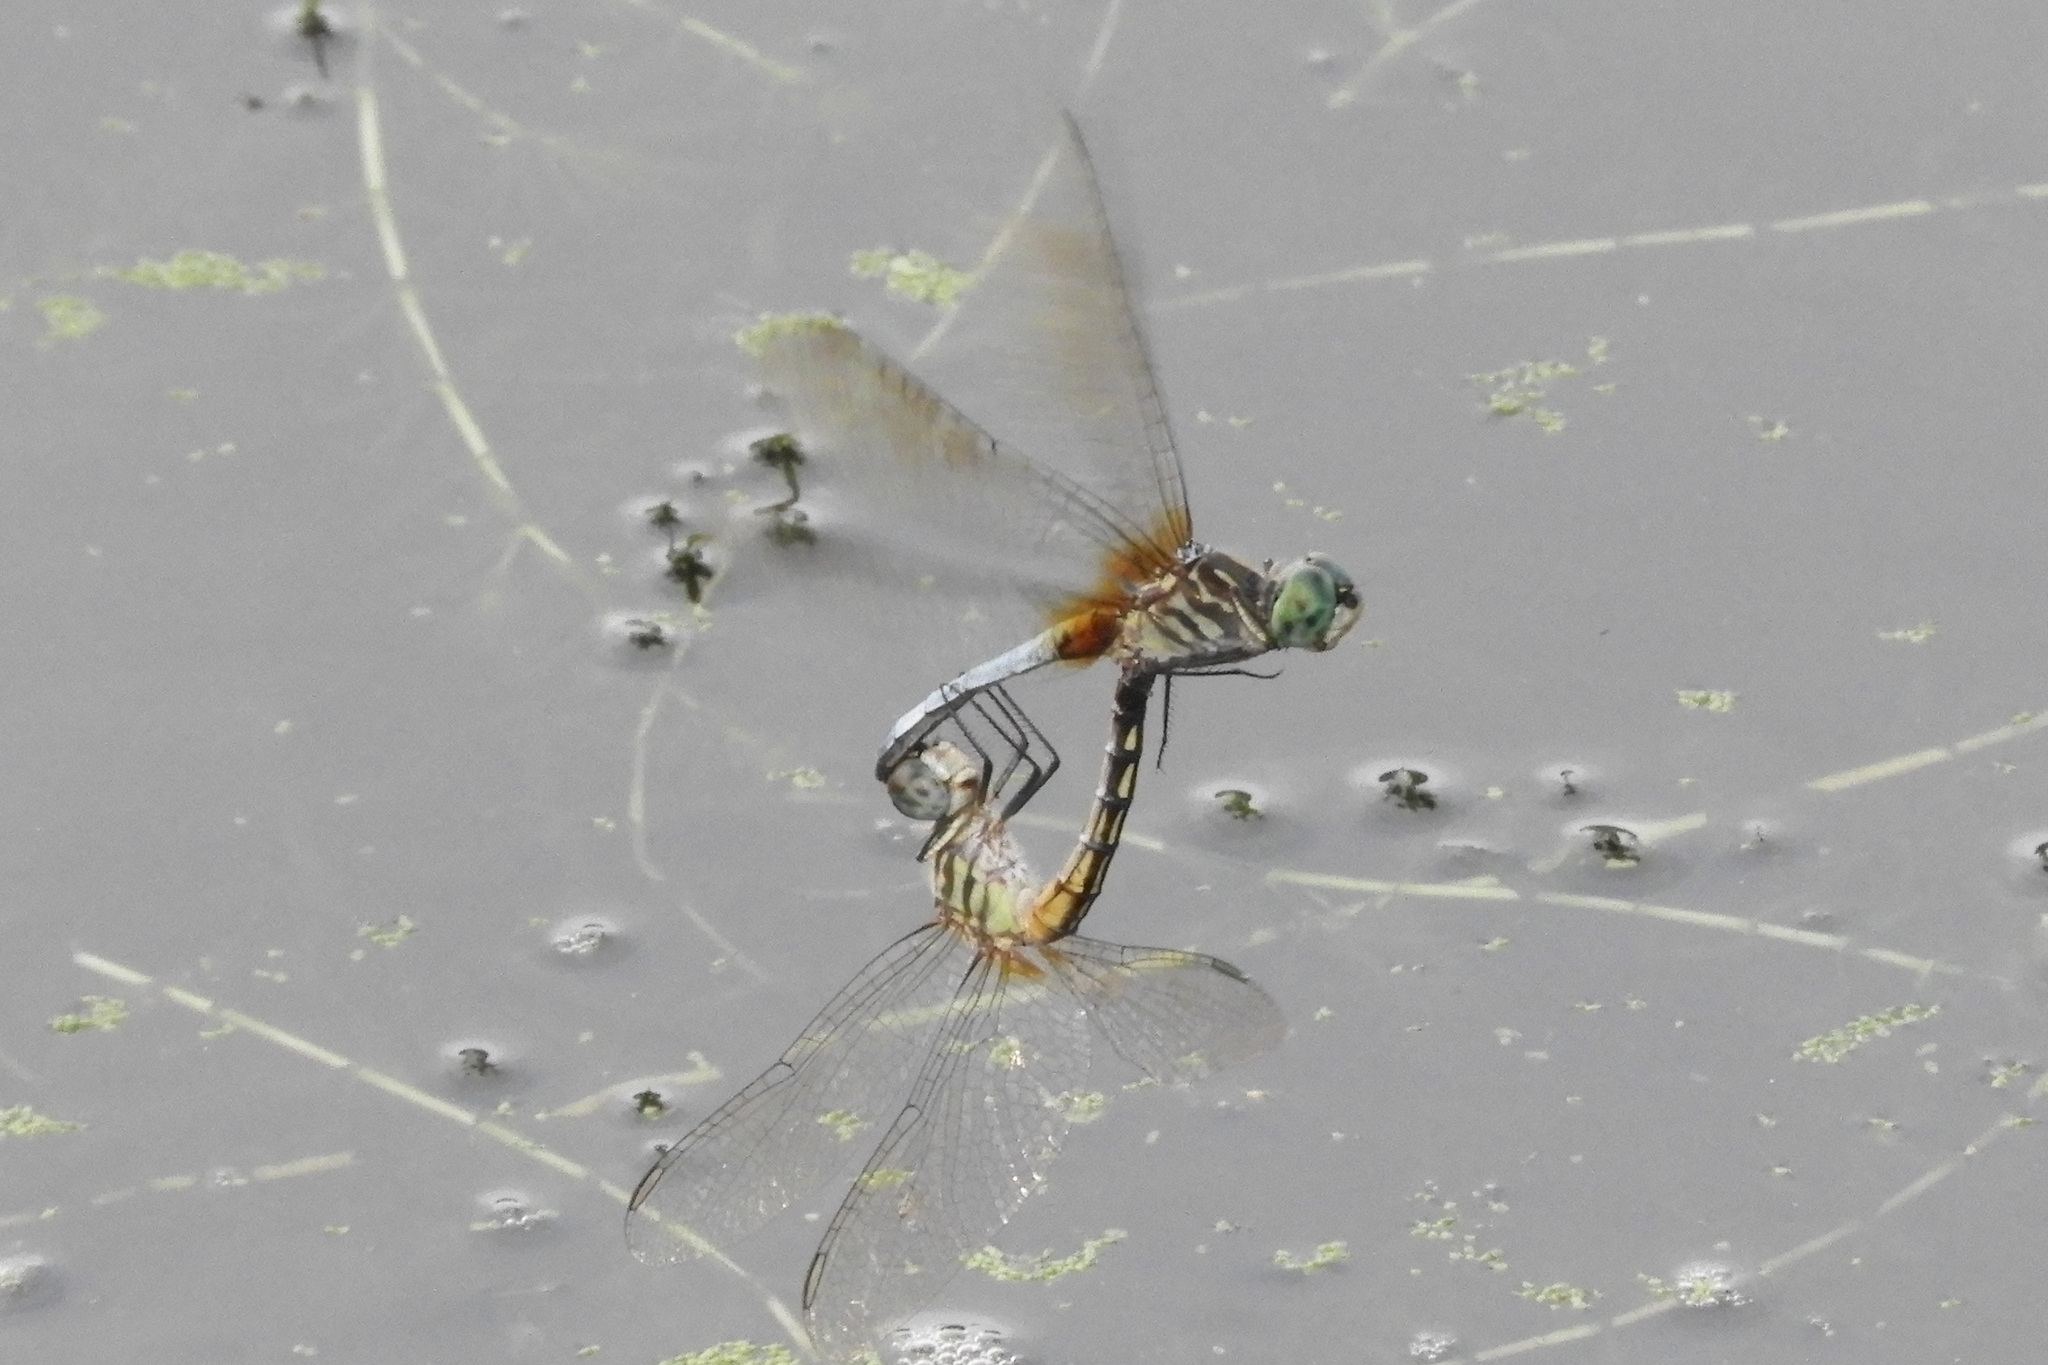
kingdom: Animalia
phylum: Arthropoda
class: Insecta
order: Odonata
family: Libellulidae
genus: Pachydiplax
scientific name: Pachydiplax longipennis
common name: Blue dasher
